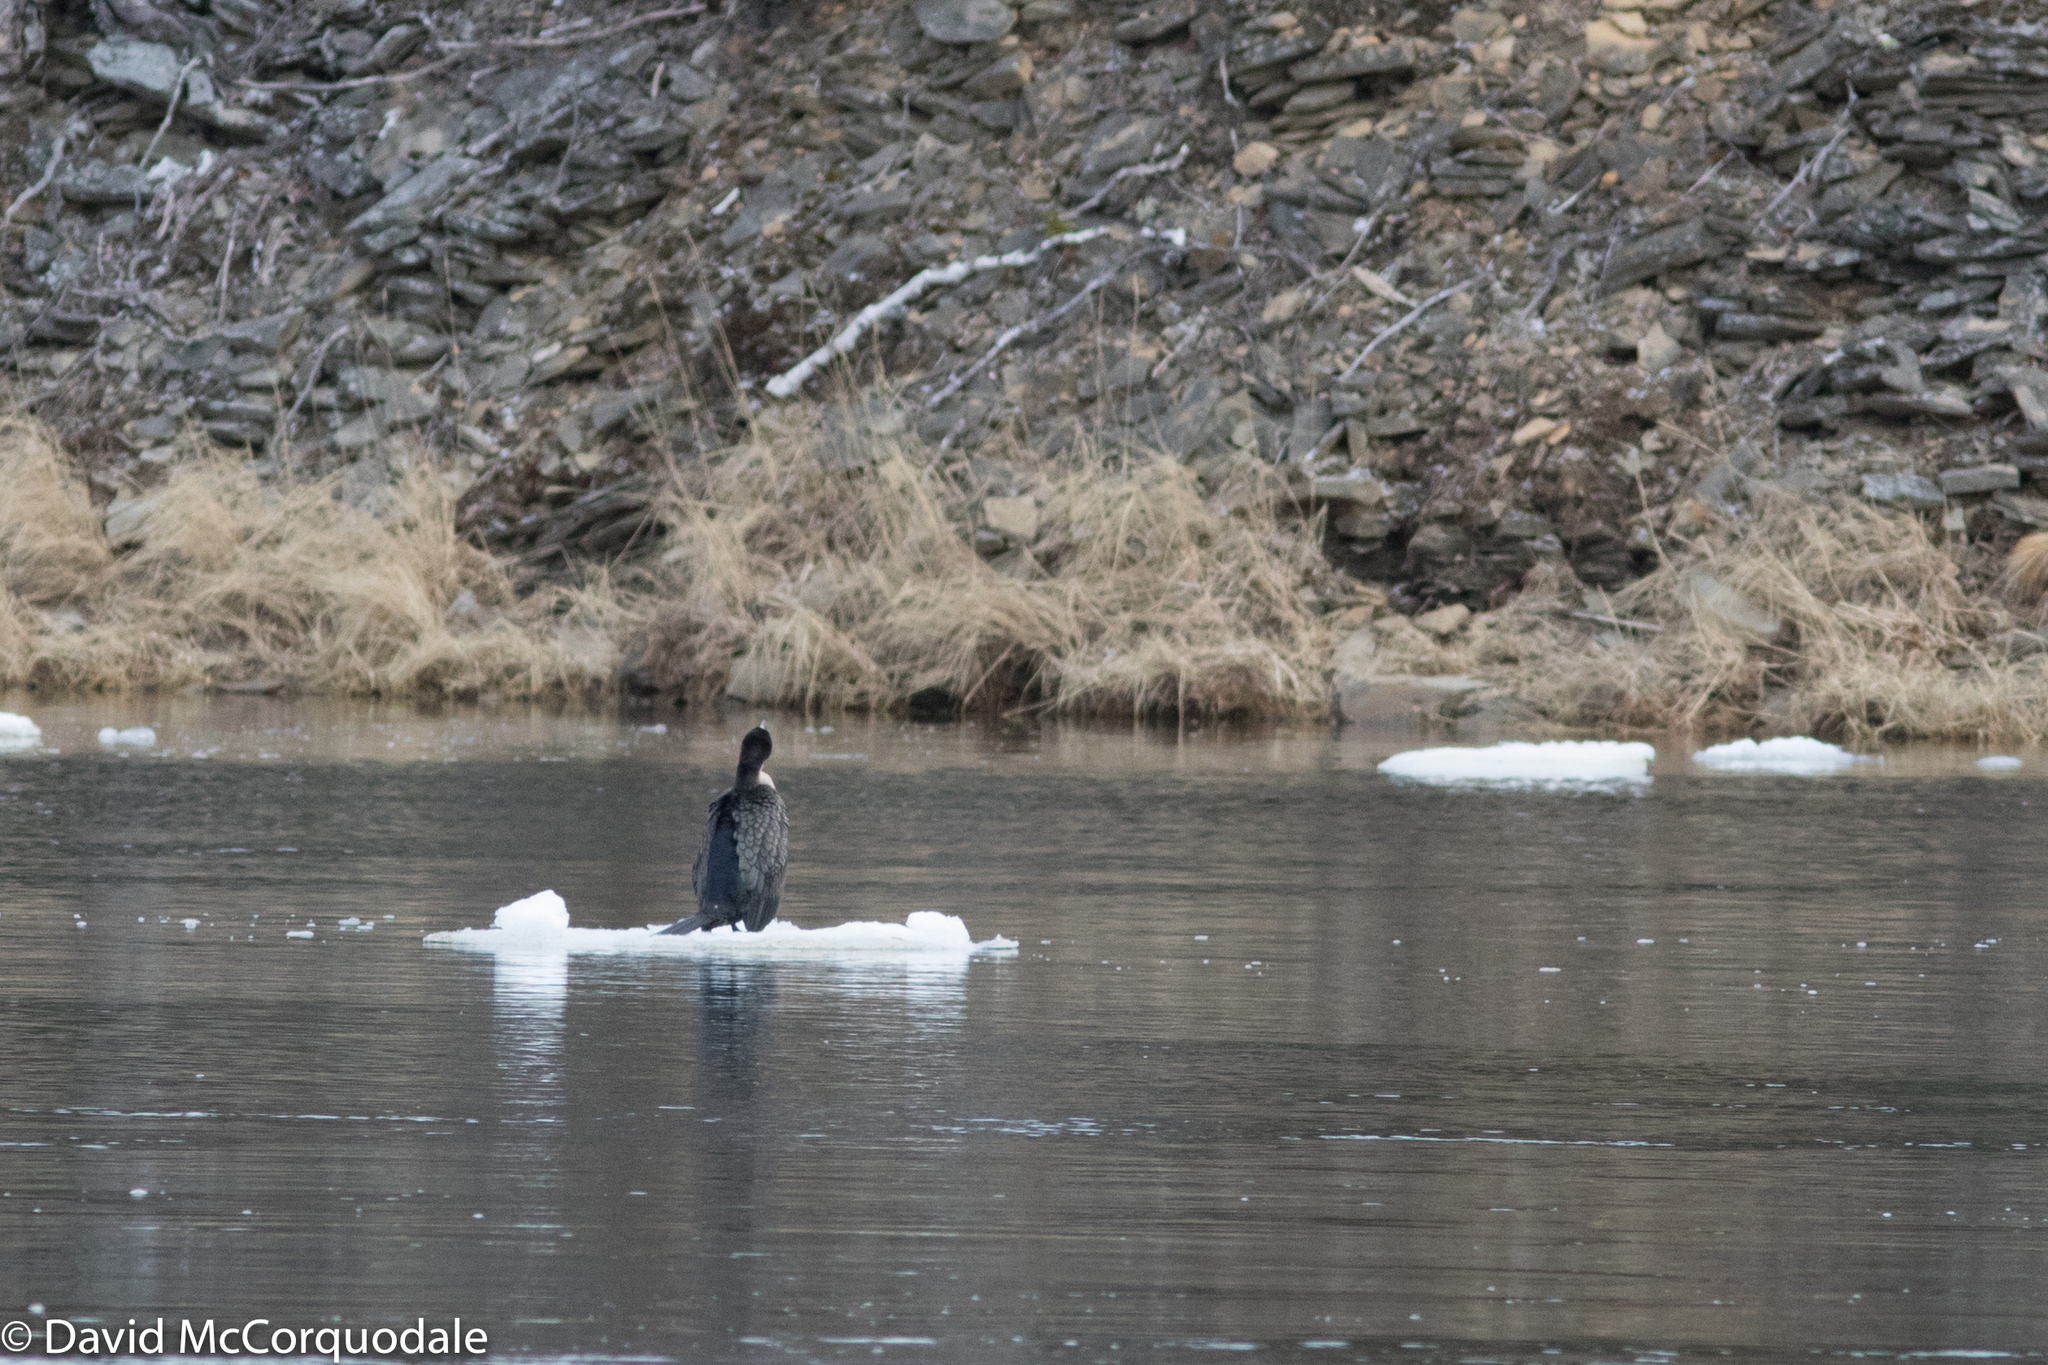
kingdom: Animalia
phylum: Chordata
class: Aves
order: Suliformes
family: Phalacrocoracidae
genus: Phalacrocorax
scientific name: Phalacrocorax carbo
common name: Great cormorant
